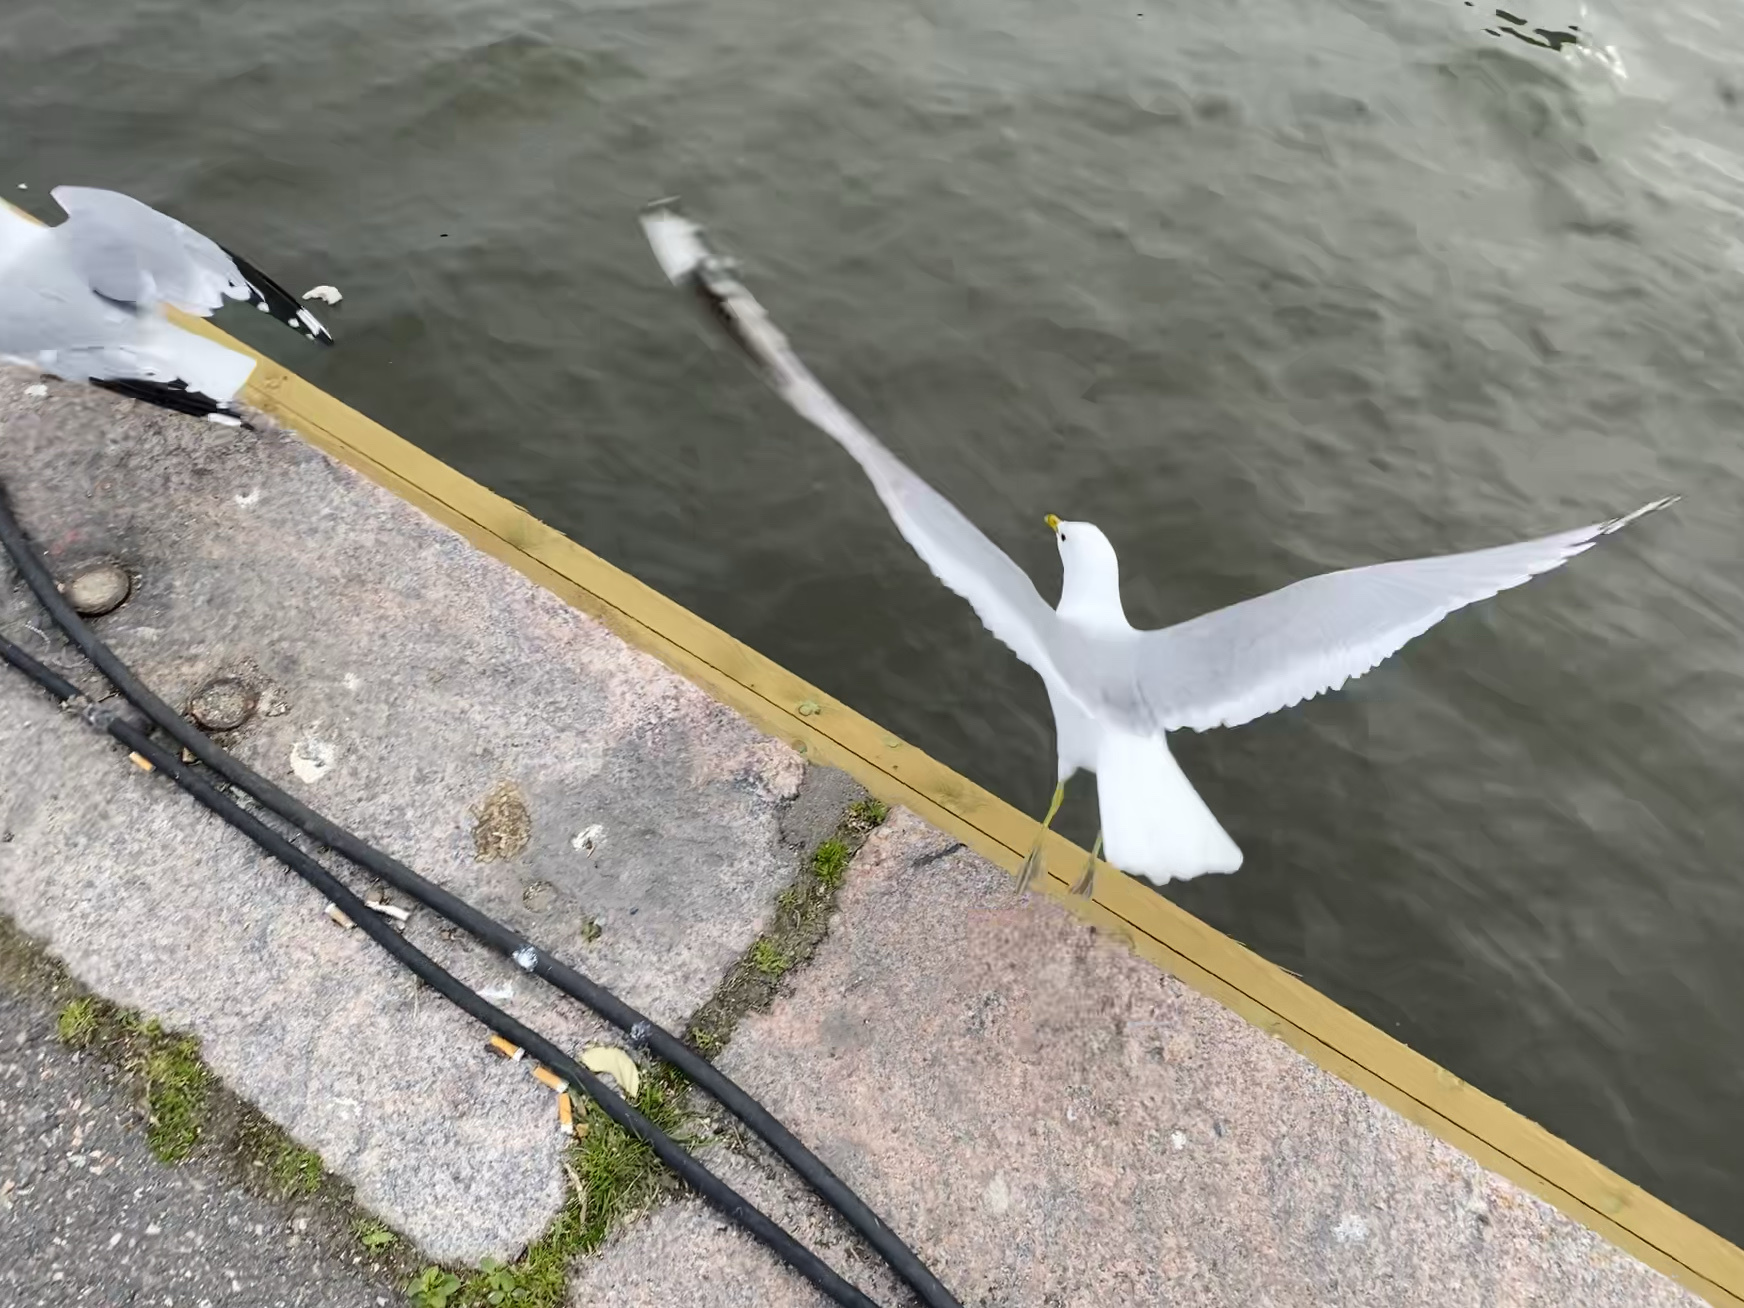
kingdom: Animalia
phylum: Chordata
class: Aves
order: Charadriiformes
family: Laridae
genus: Larus
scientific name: Larus canus
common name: Mew gull
